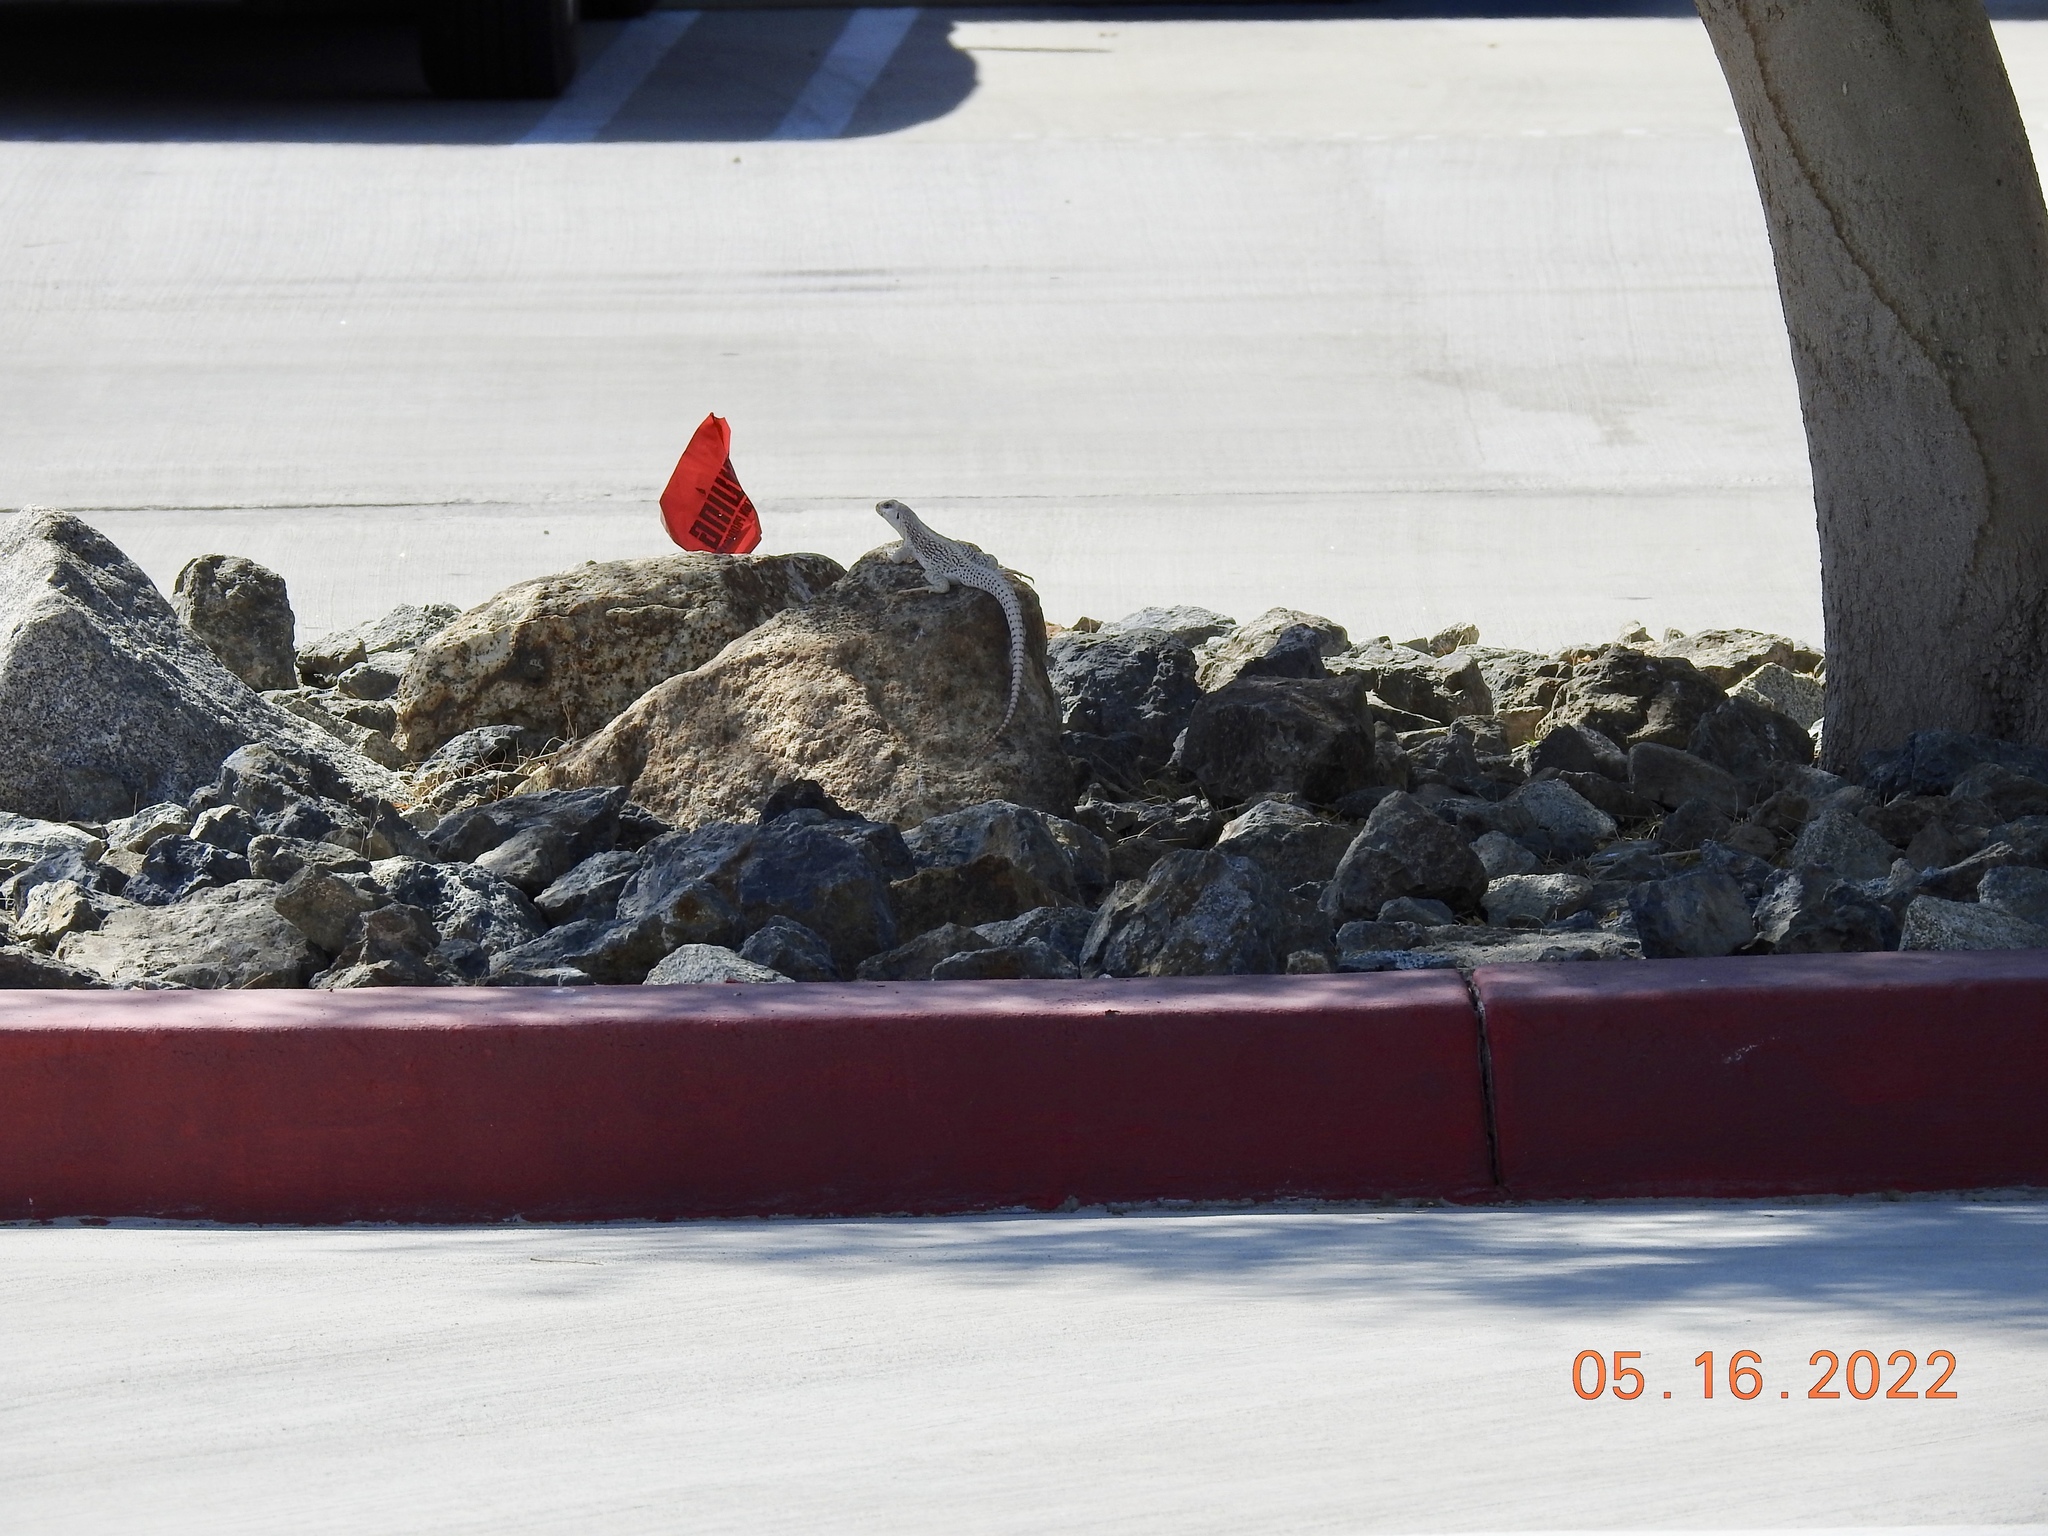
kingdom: Animalia
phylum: Chordata
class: Squamata
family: Iguanidae
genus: Dipsosaurus
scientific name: Dipsosaurus dorsalis
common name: Desert iguana
